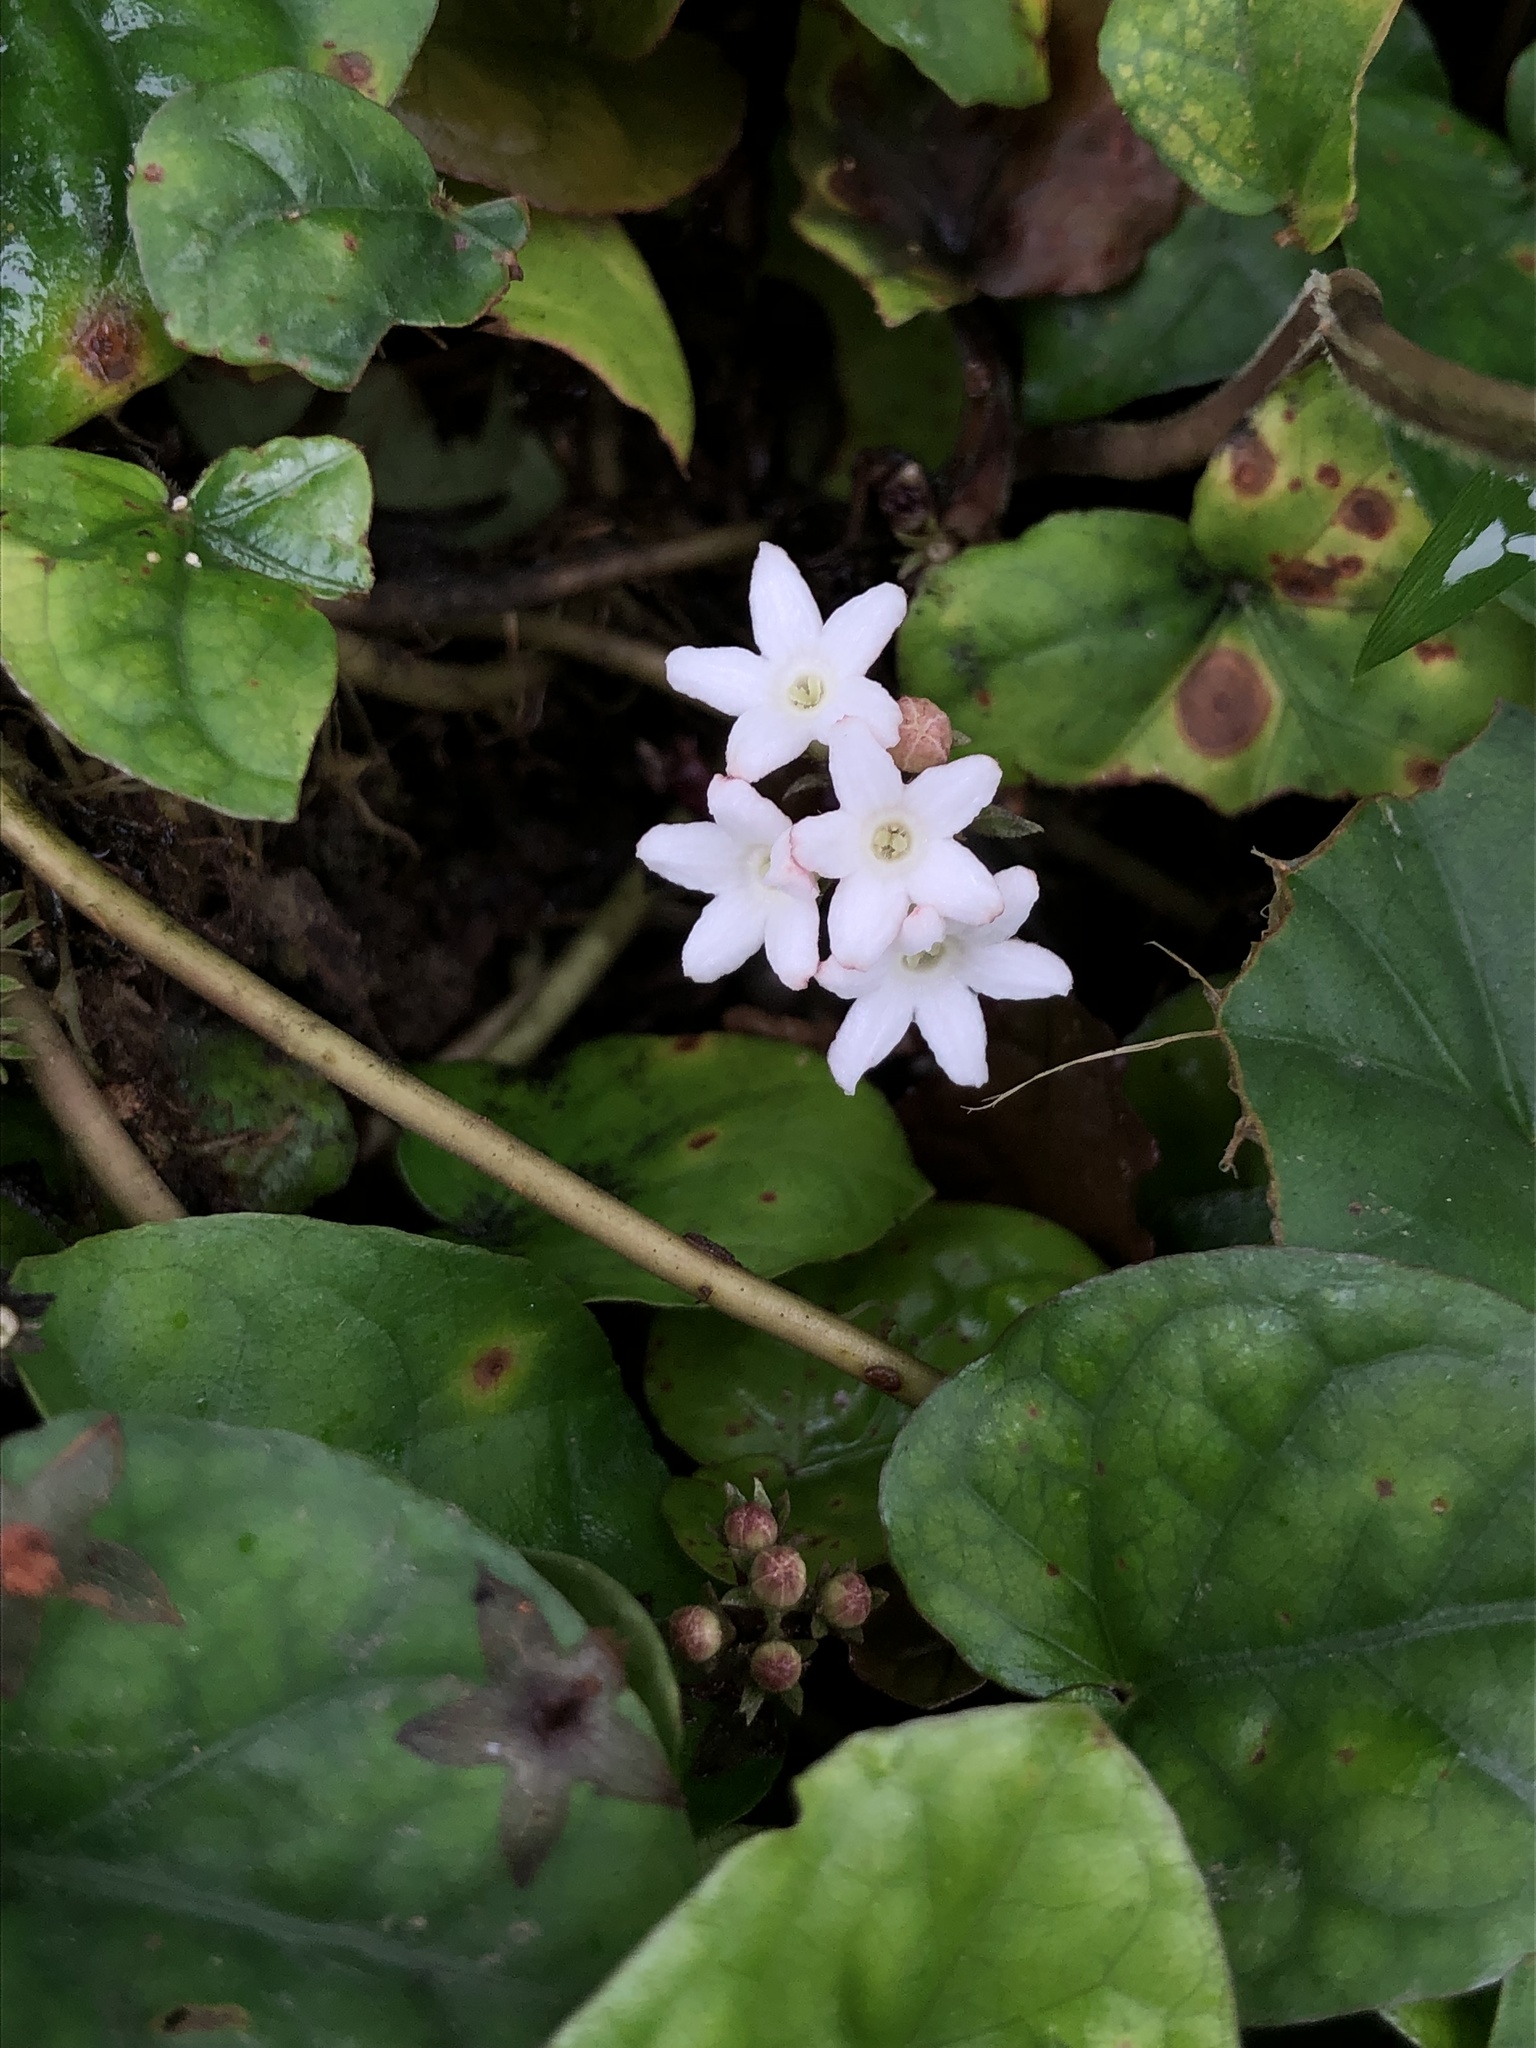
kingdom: Plantae
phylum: Tracheophyta
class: Magnoliopsida
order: Gentianales
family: Rubiaceae
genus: Geophila
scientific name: Geophila macropoda
